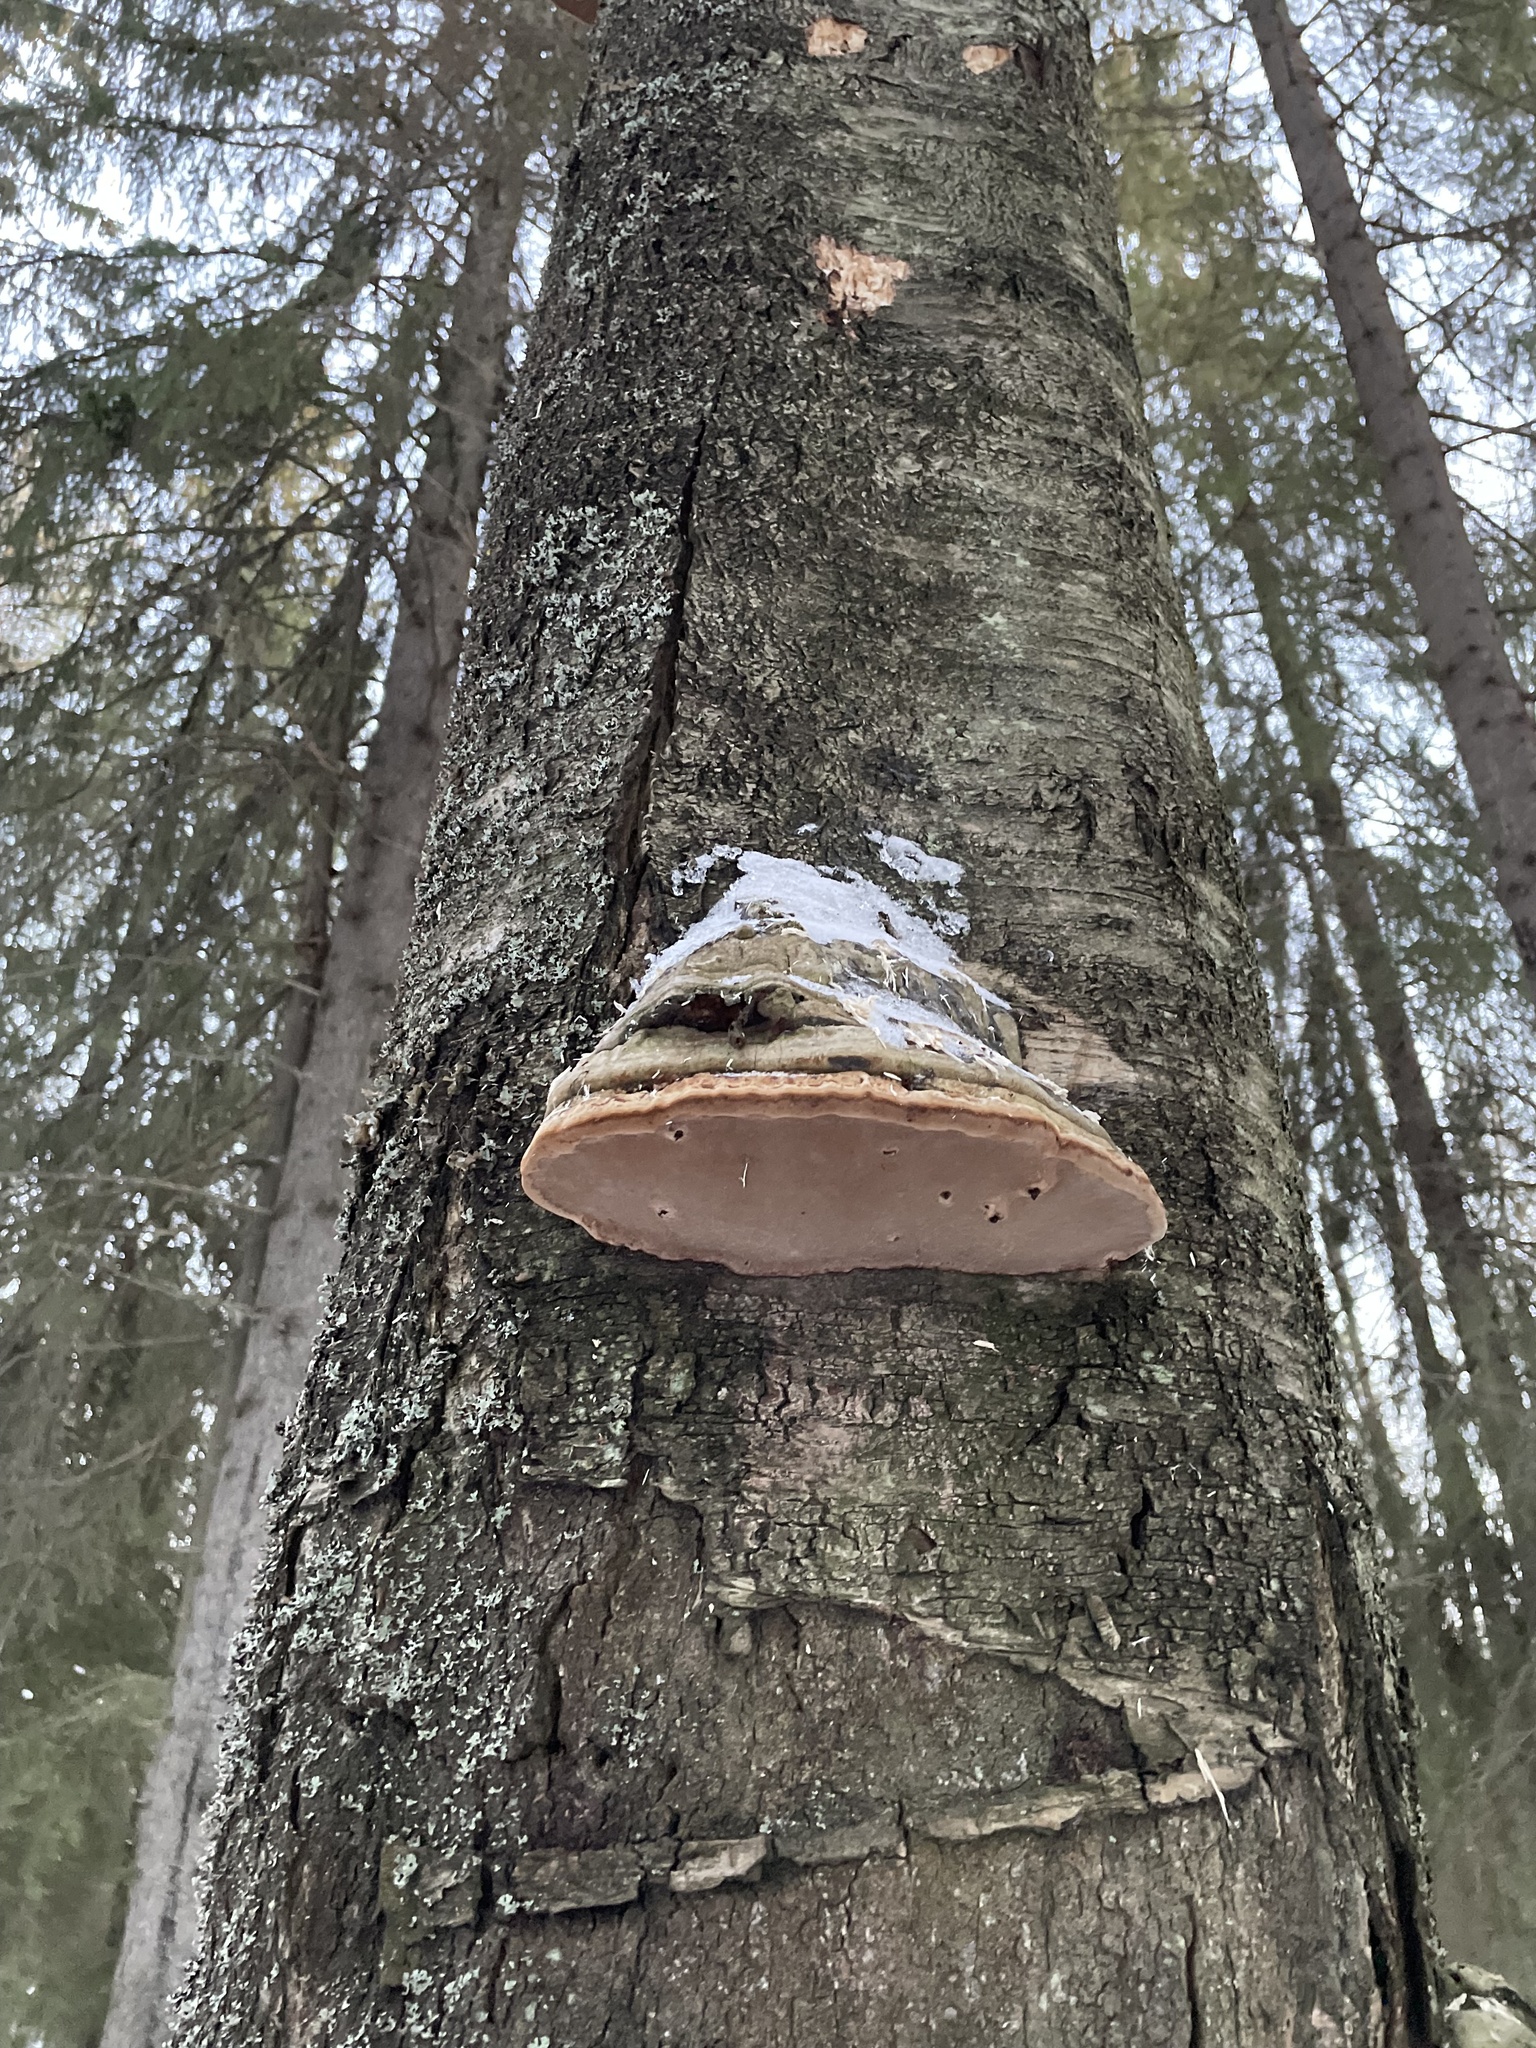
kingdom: Fungi
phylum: Basidiomycota
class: Agaricomycetes
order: Polyporales
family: Polyporaceae
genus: Fomes
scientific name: Fomes fomentarius
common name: Hoof fungus
